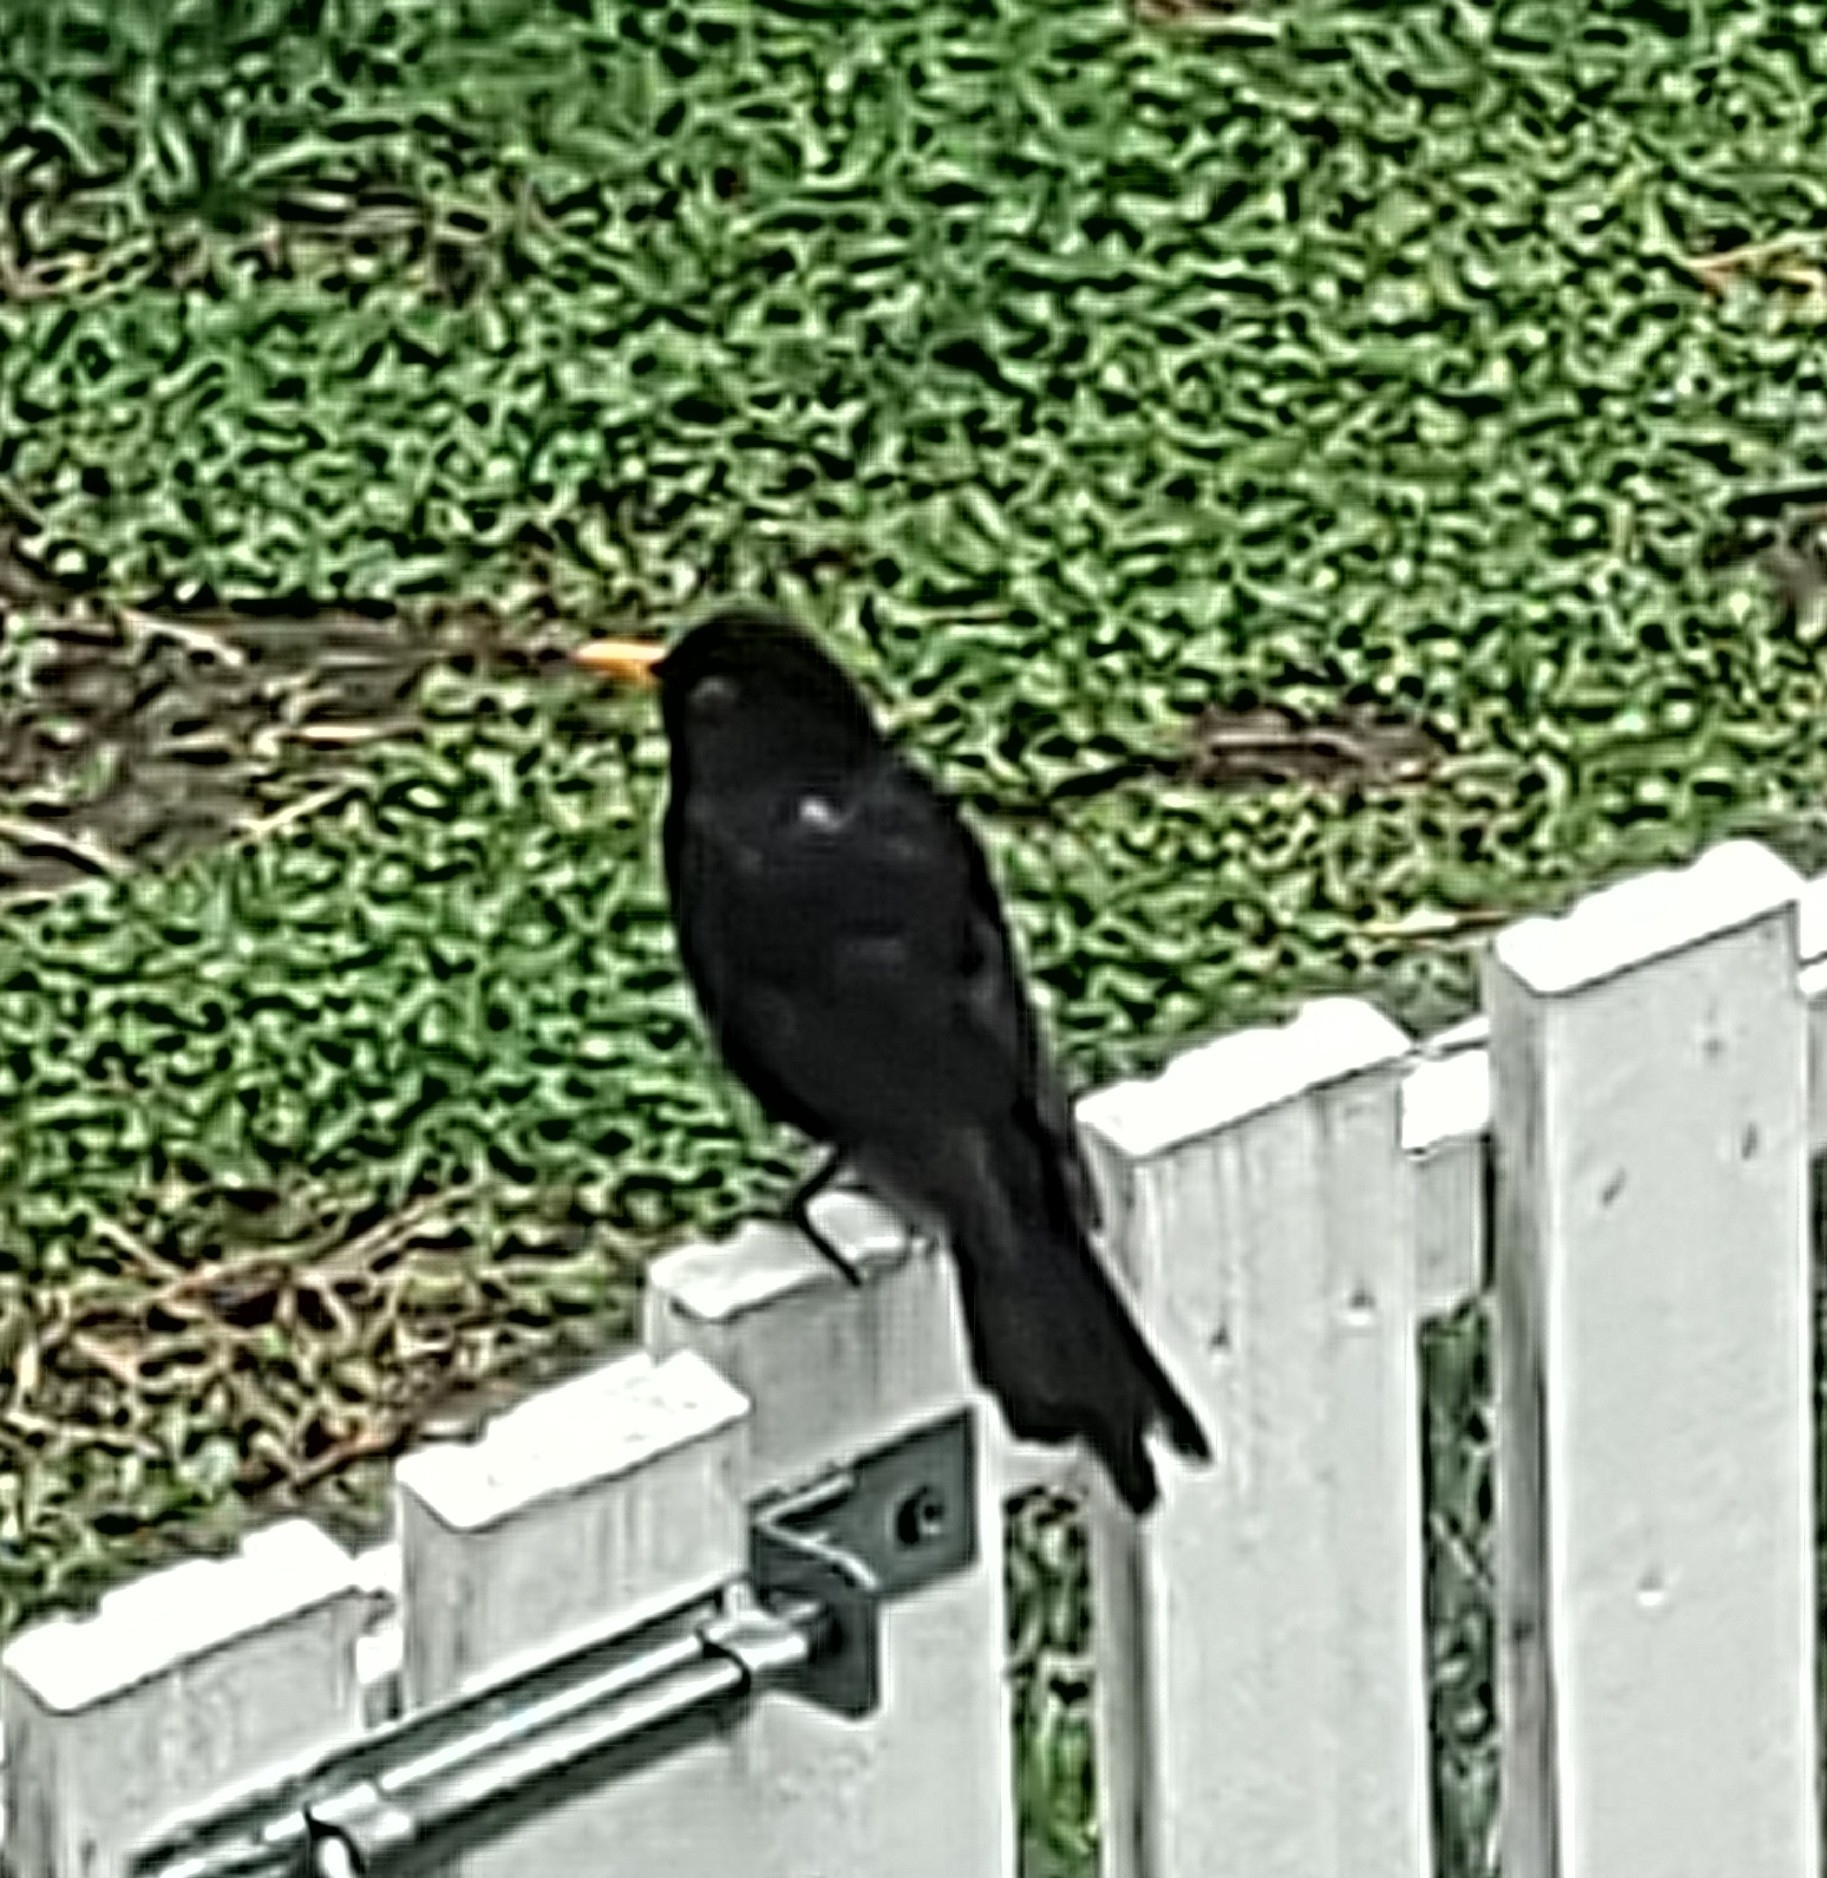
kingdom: Animalia
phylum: Chordata
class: Aves
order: Passeriformes
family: Turdidae
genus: Turdus
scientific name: Turdus merula
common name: Common blackbird
